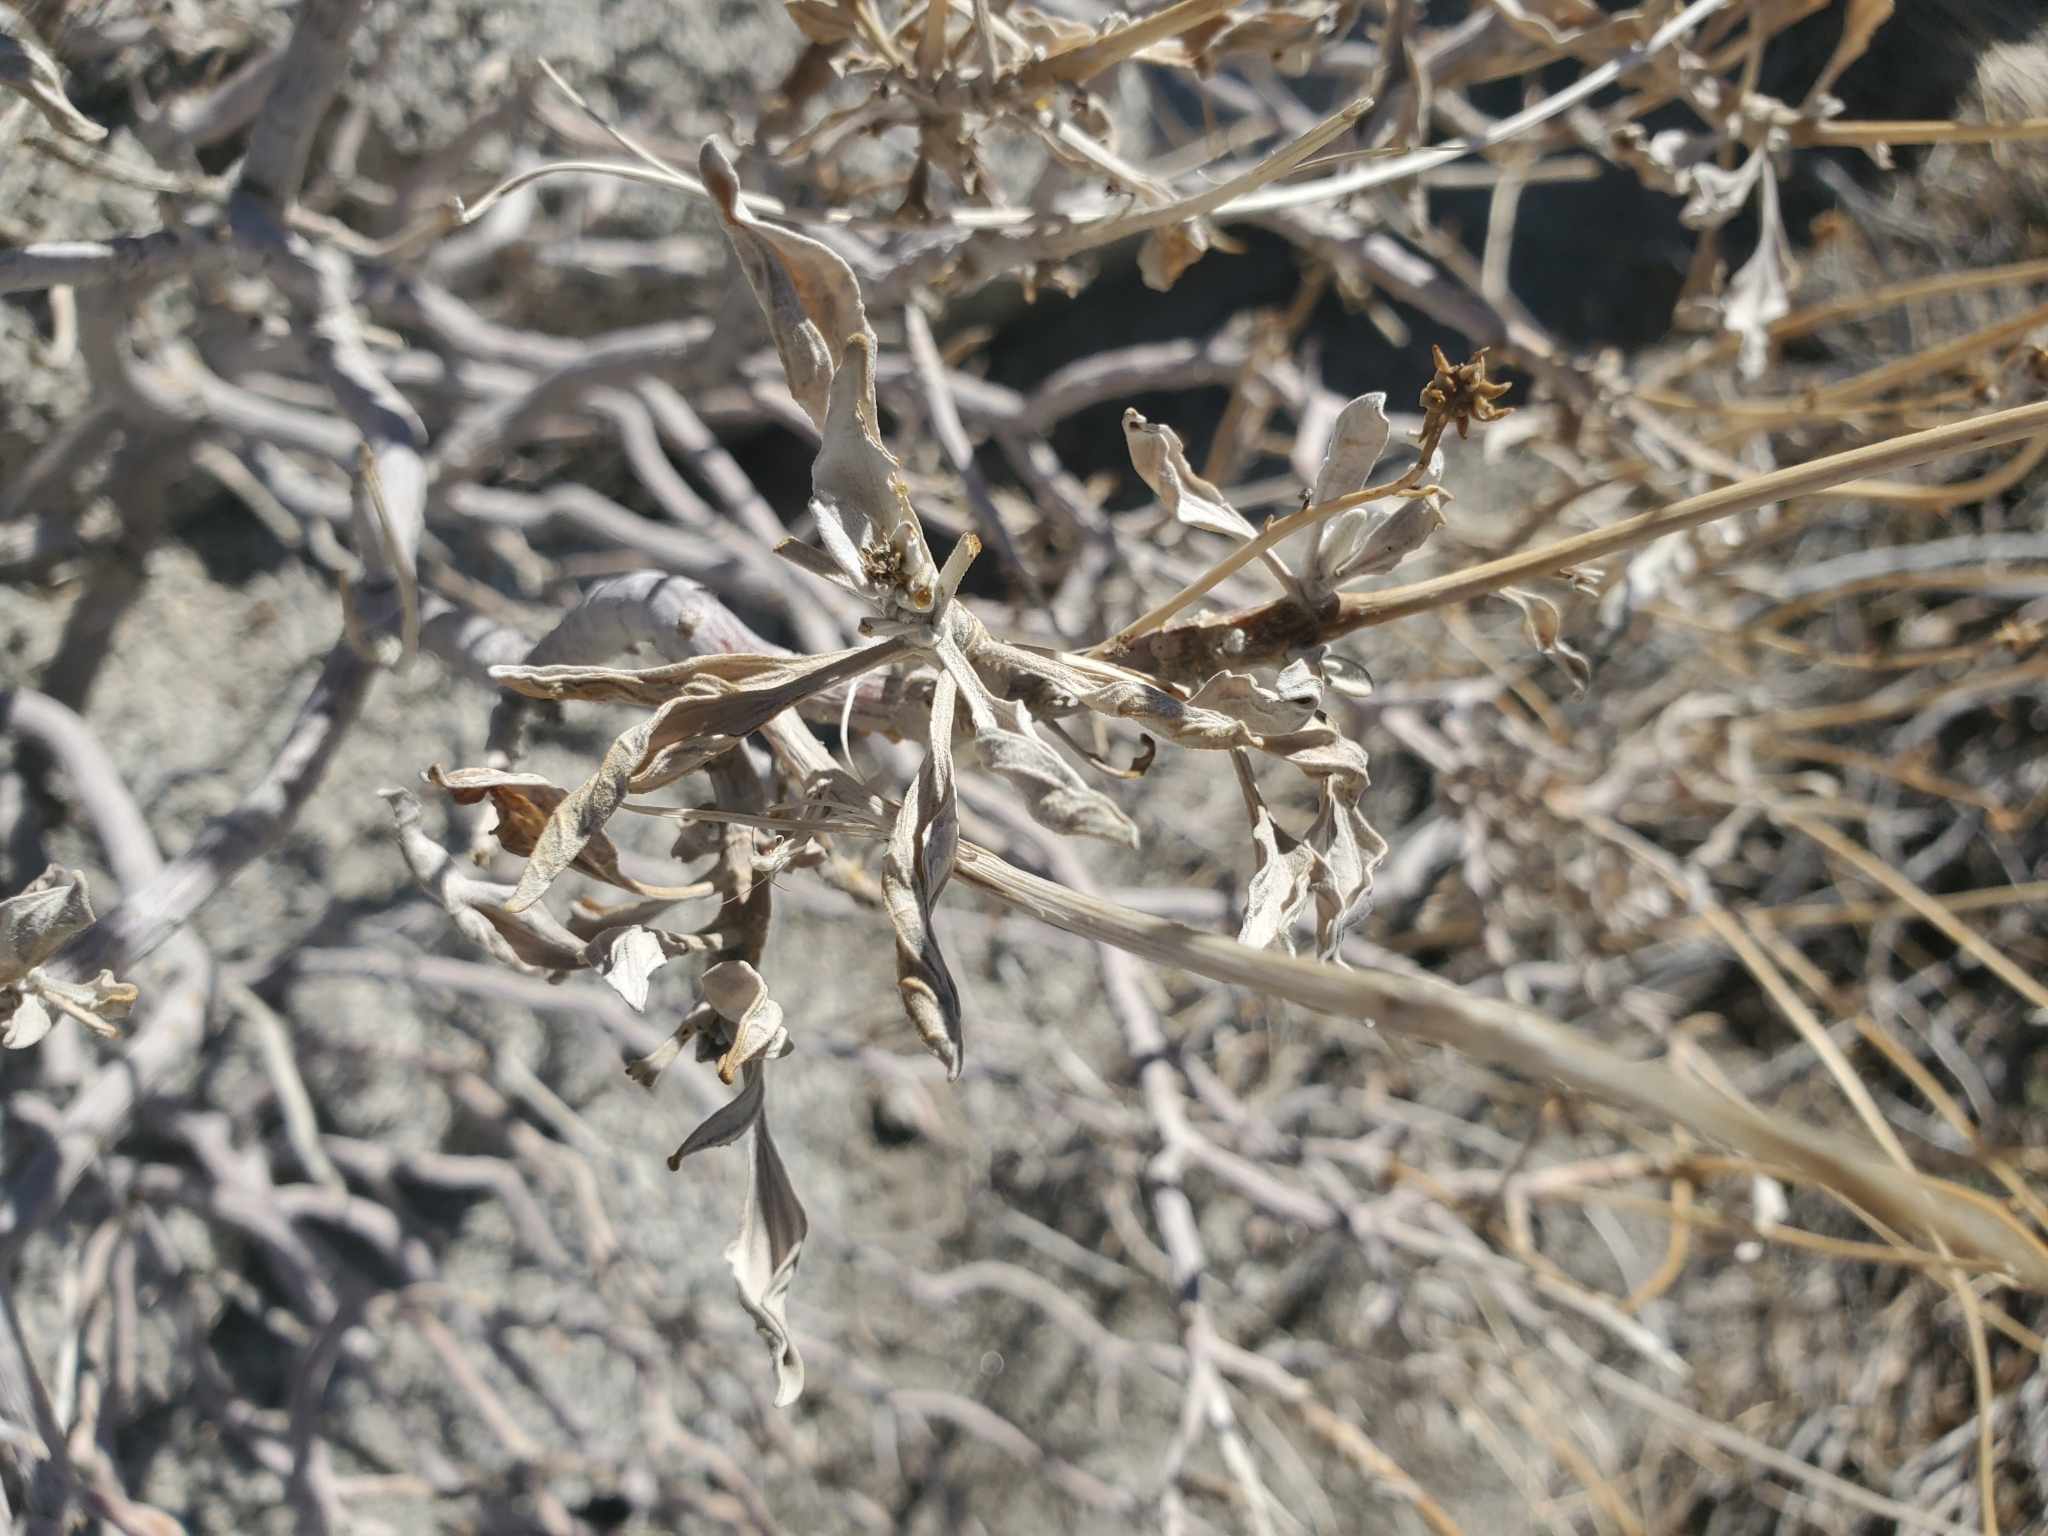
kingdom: Plantae
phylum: Tracheophyta
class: Magnoliopsida
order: Asterales
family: Asteraceae
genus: Encelia
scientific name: Encelia farinosa
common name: Brittlebush
